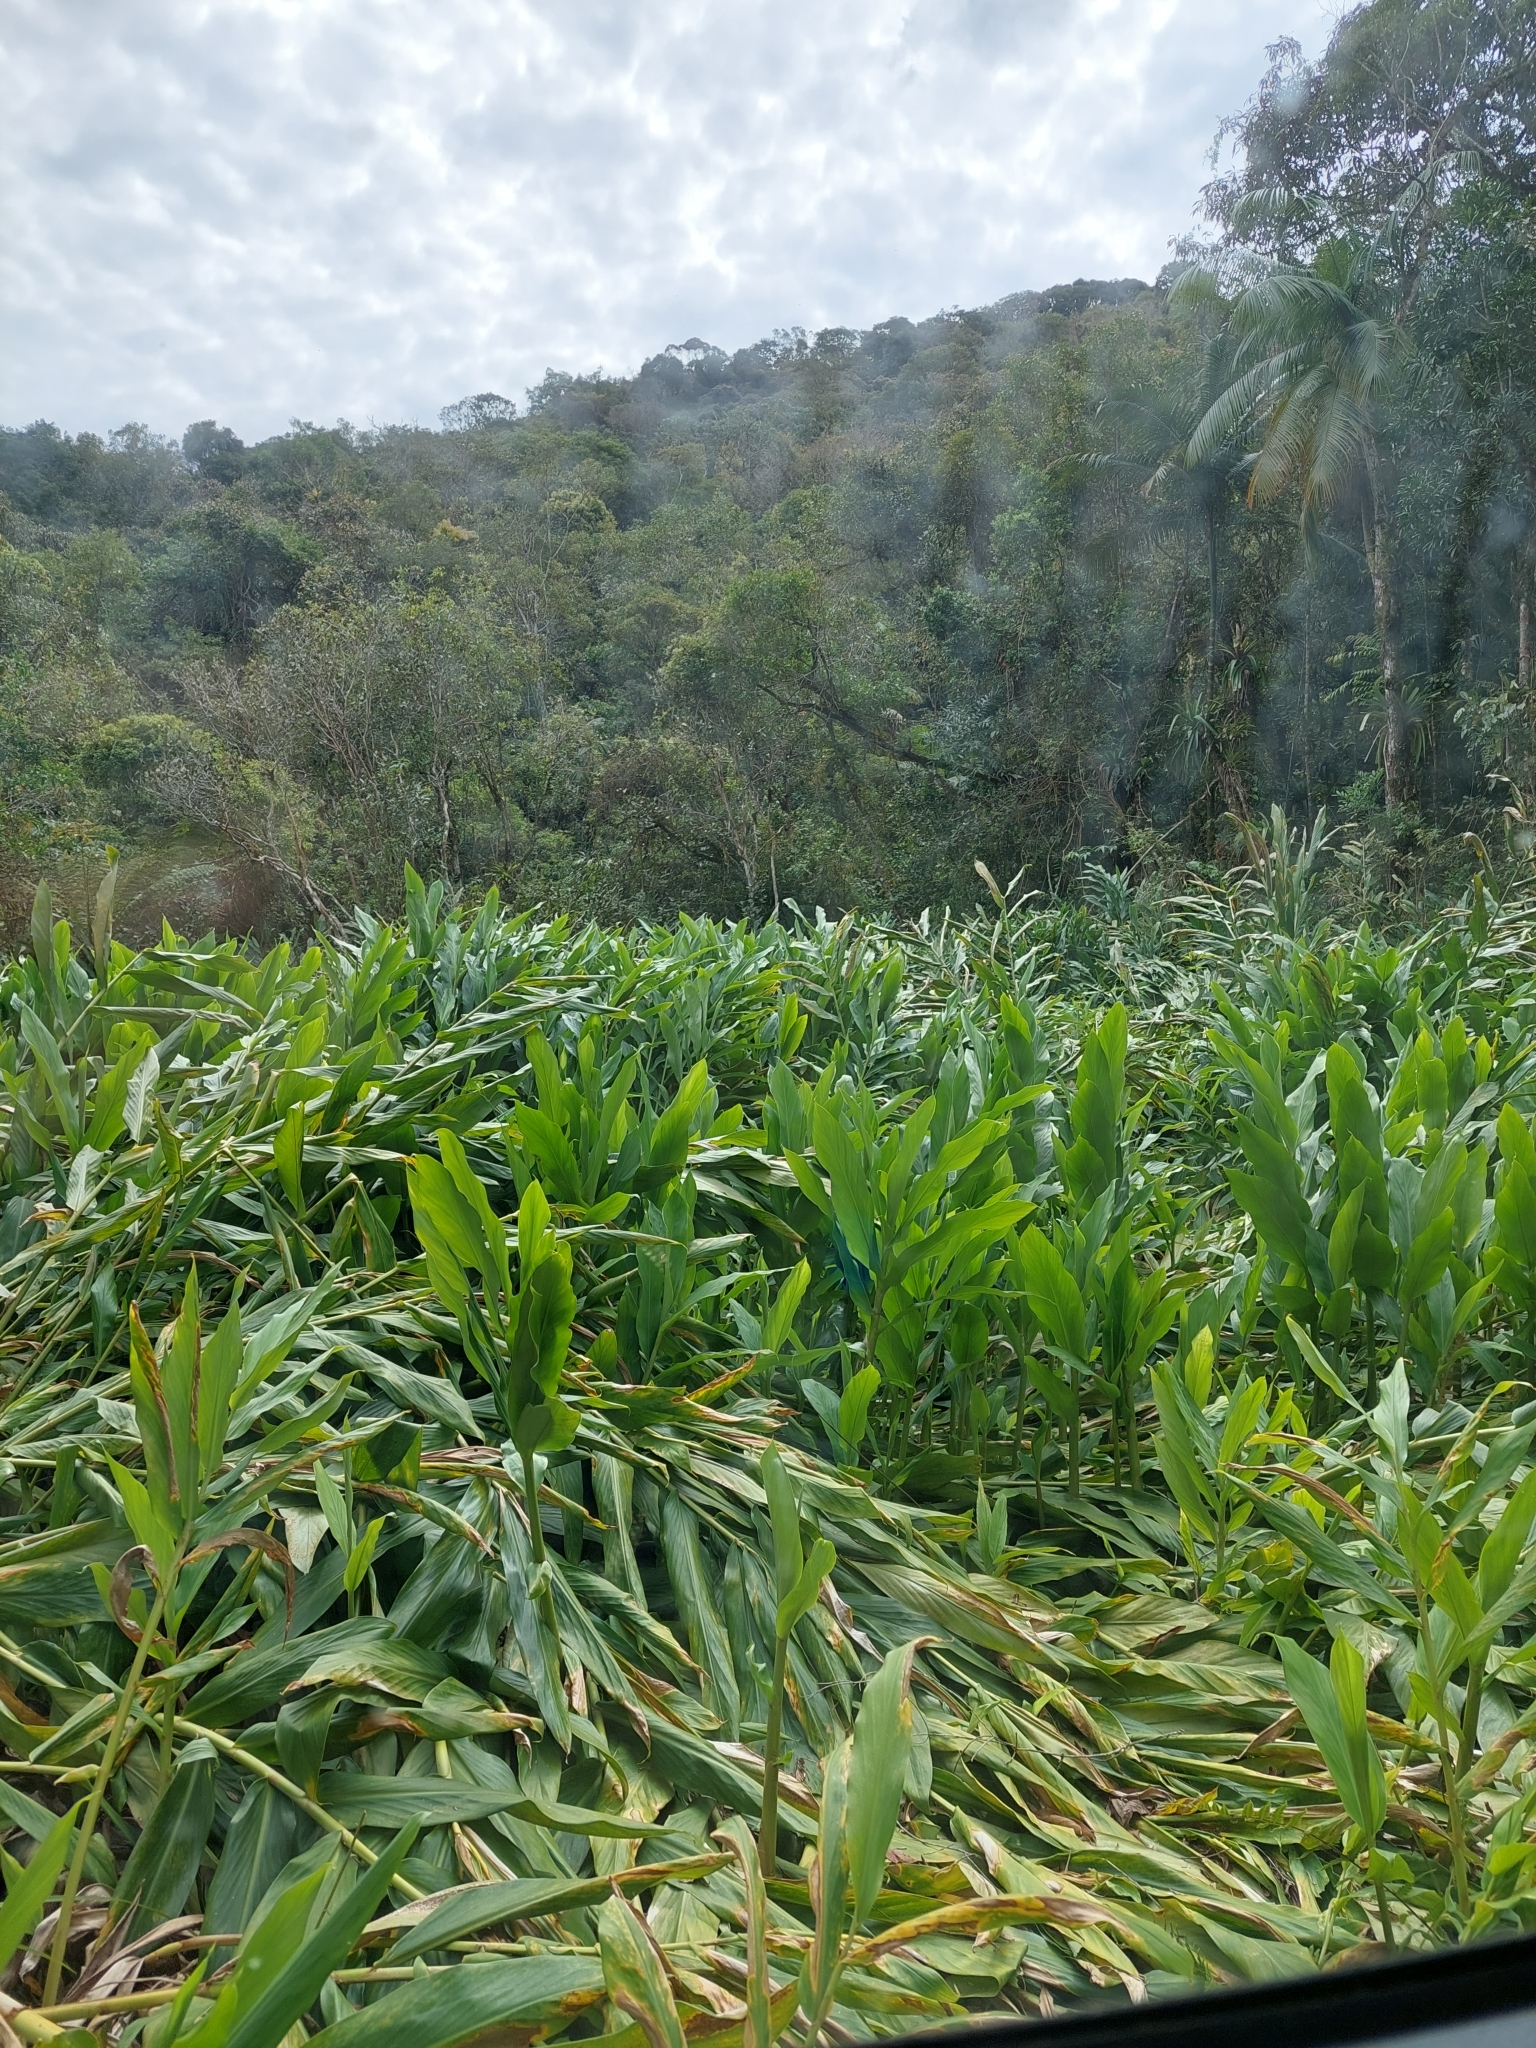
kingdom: Plantae
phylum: Tracheophyta
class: Liliopsida
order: Zingiberales
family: Zingiberaceae
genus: Hedychium
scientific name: Hedychium coronarium
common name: White garland-lily
